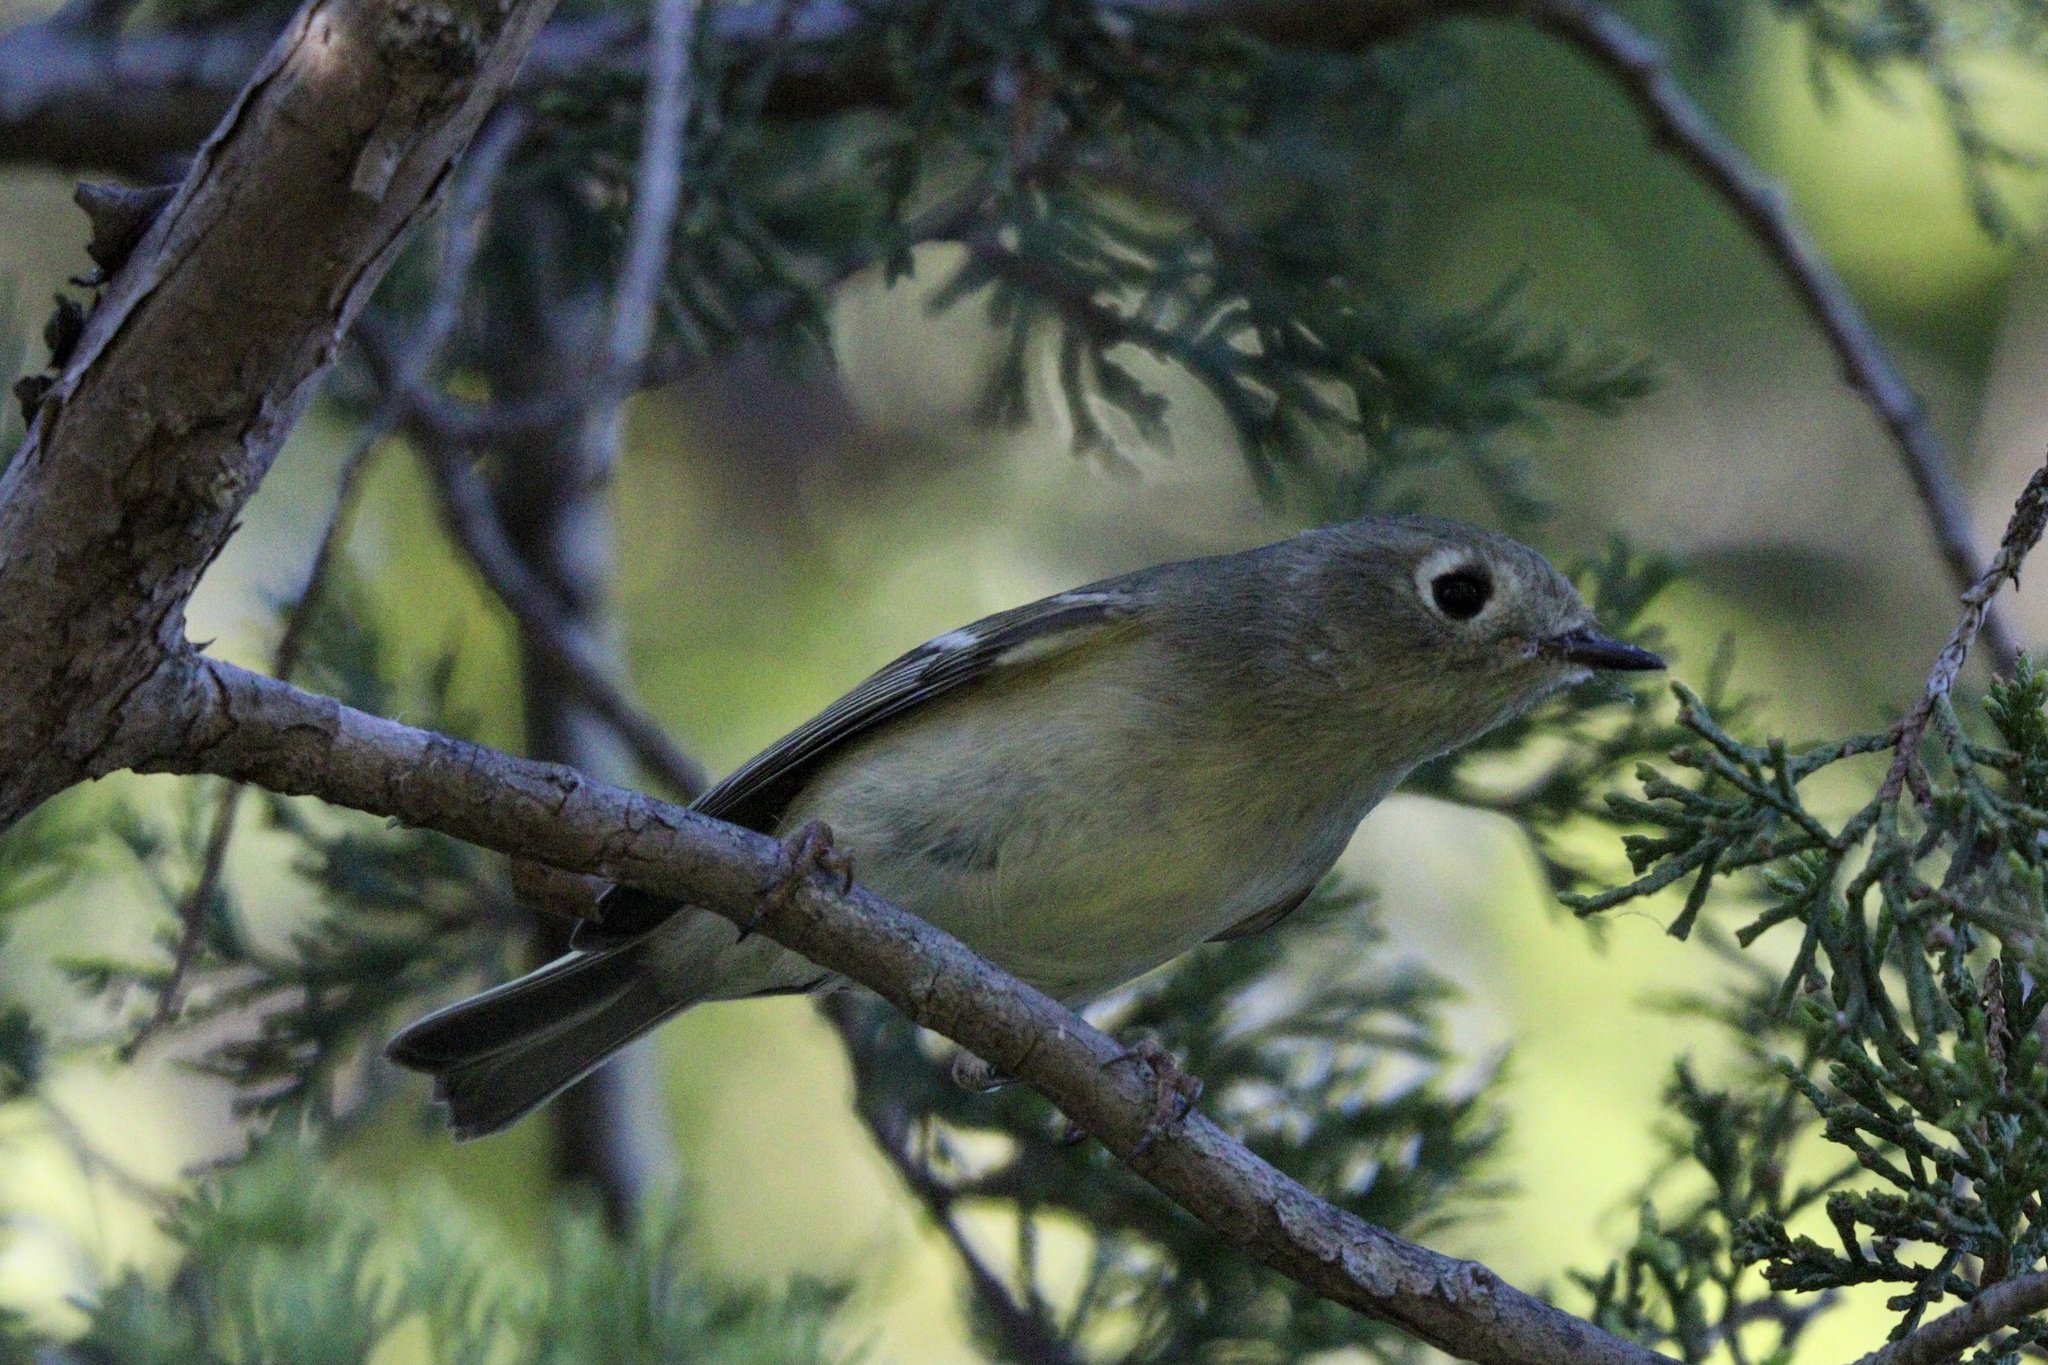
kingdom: Animalia
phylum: Chordata
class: Aves
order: Passeriformes
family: Regulidae
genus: Regulus
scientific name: Regulus calendula
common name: Ruby-crowned kinglet
